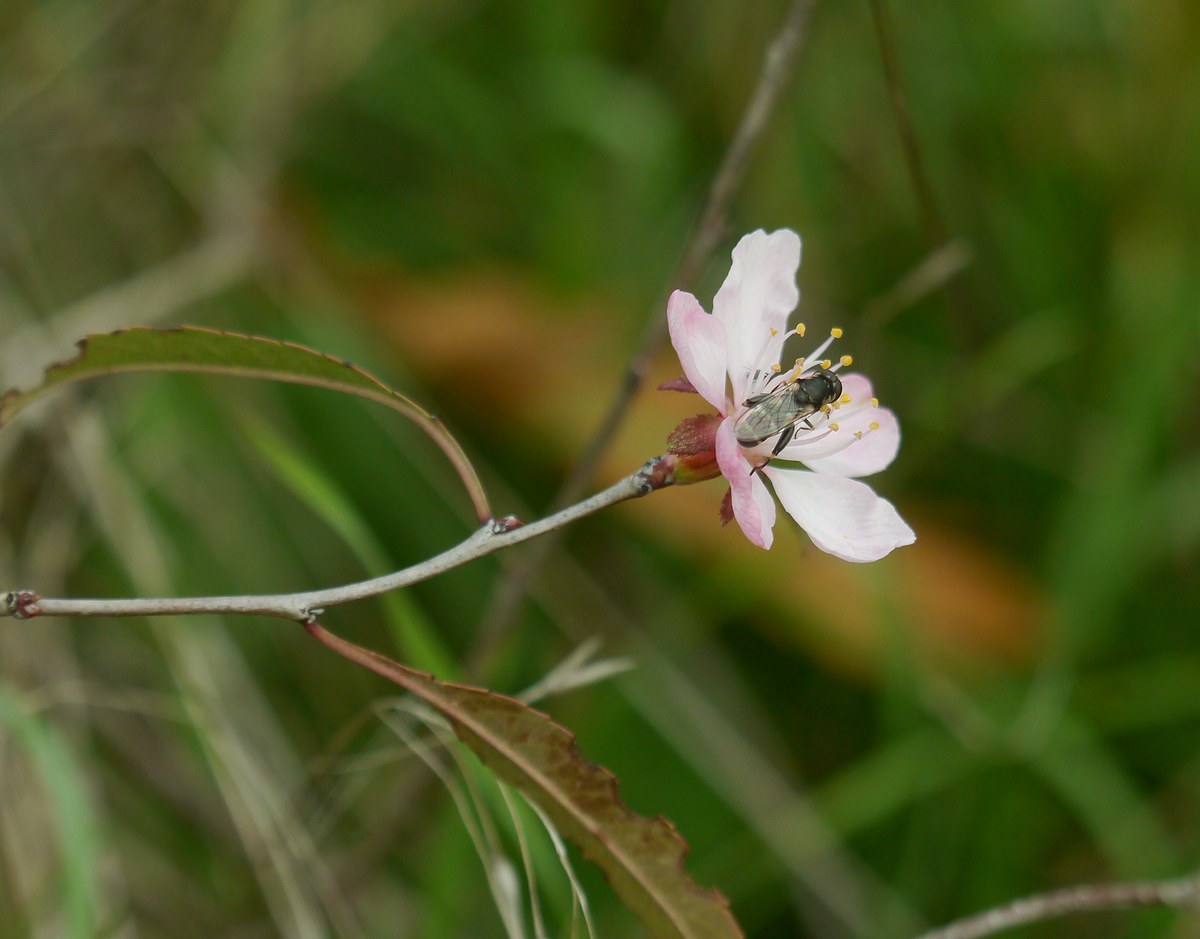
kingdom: Animalia
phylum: Arthropoda
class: Insecta
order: Diptera
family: Syrphidae
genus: Syritta
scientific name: Syritta pipiens
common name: Hover fly
